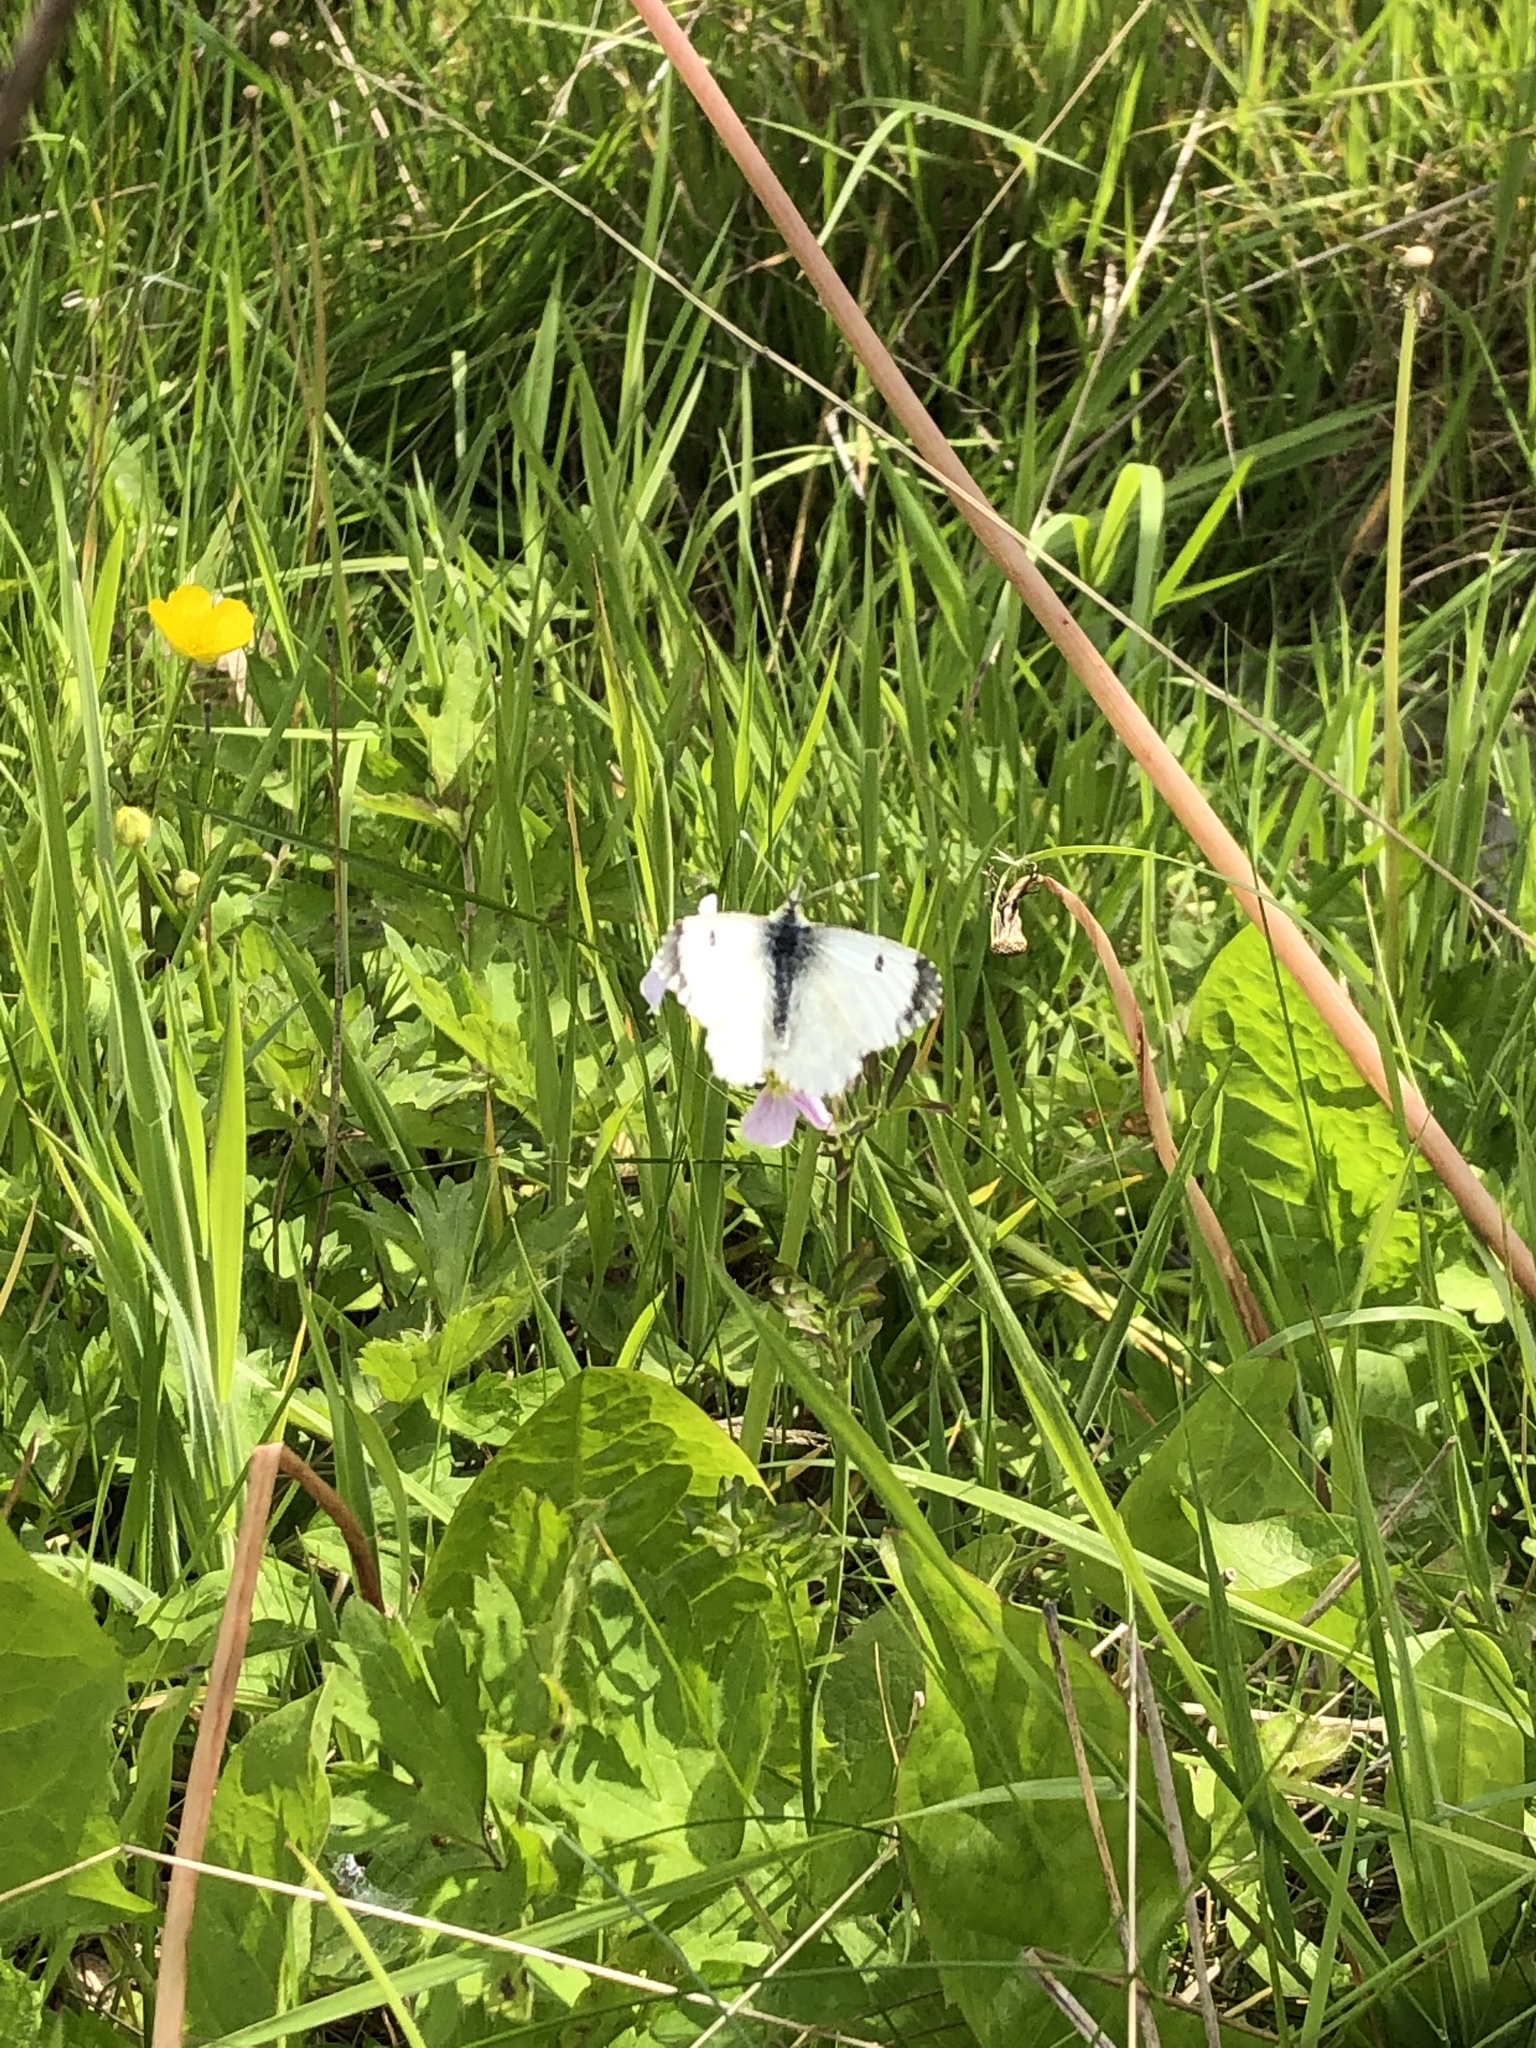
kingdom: Animalia
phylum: Arthropoda
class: Insecta
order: Lepidoptera
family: Pieridae
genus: Anthocharis
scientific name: Anthocharis cardamines
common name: Orange-tip
